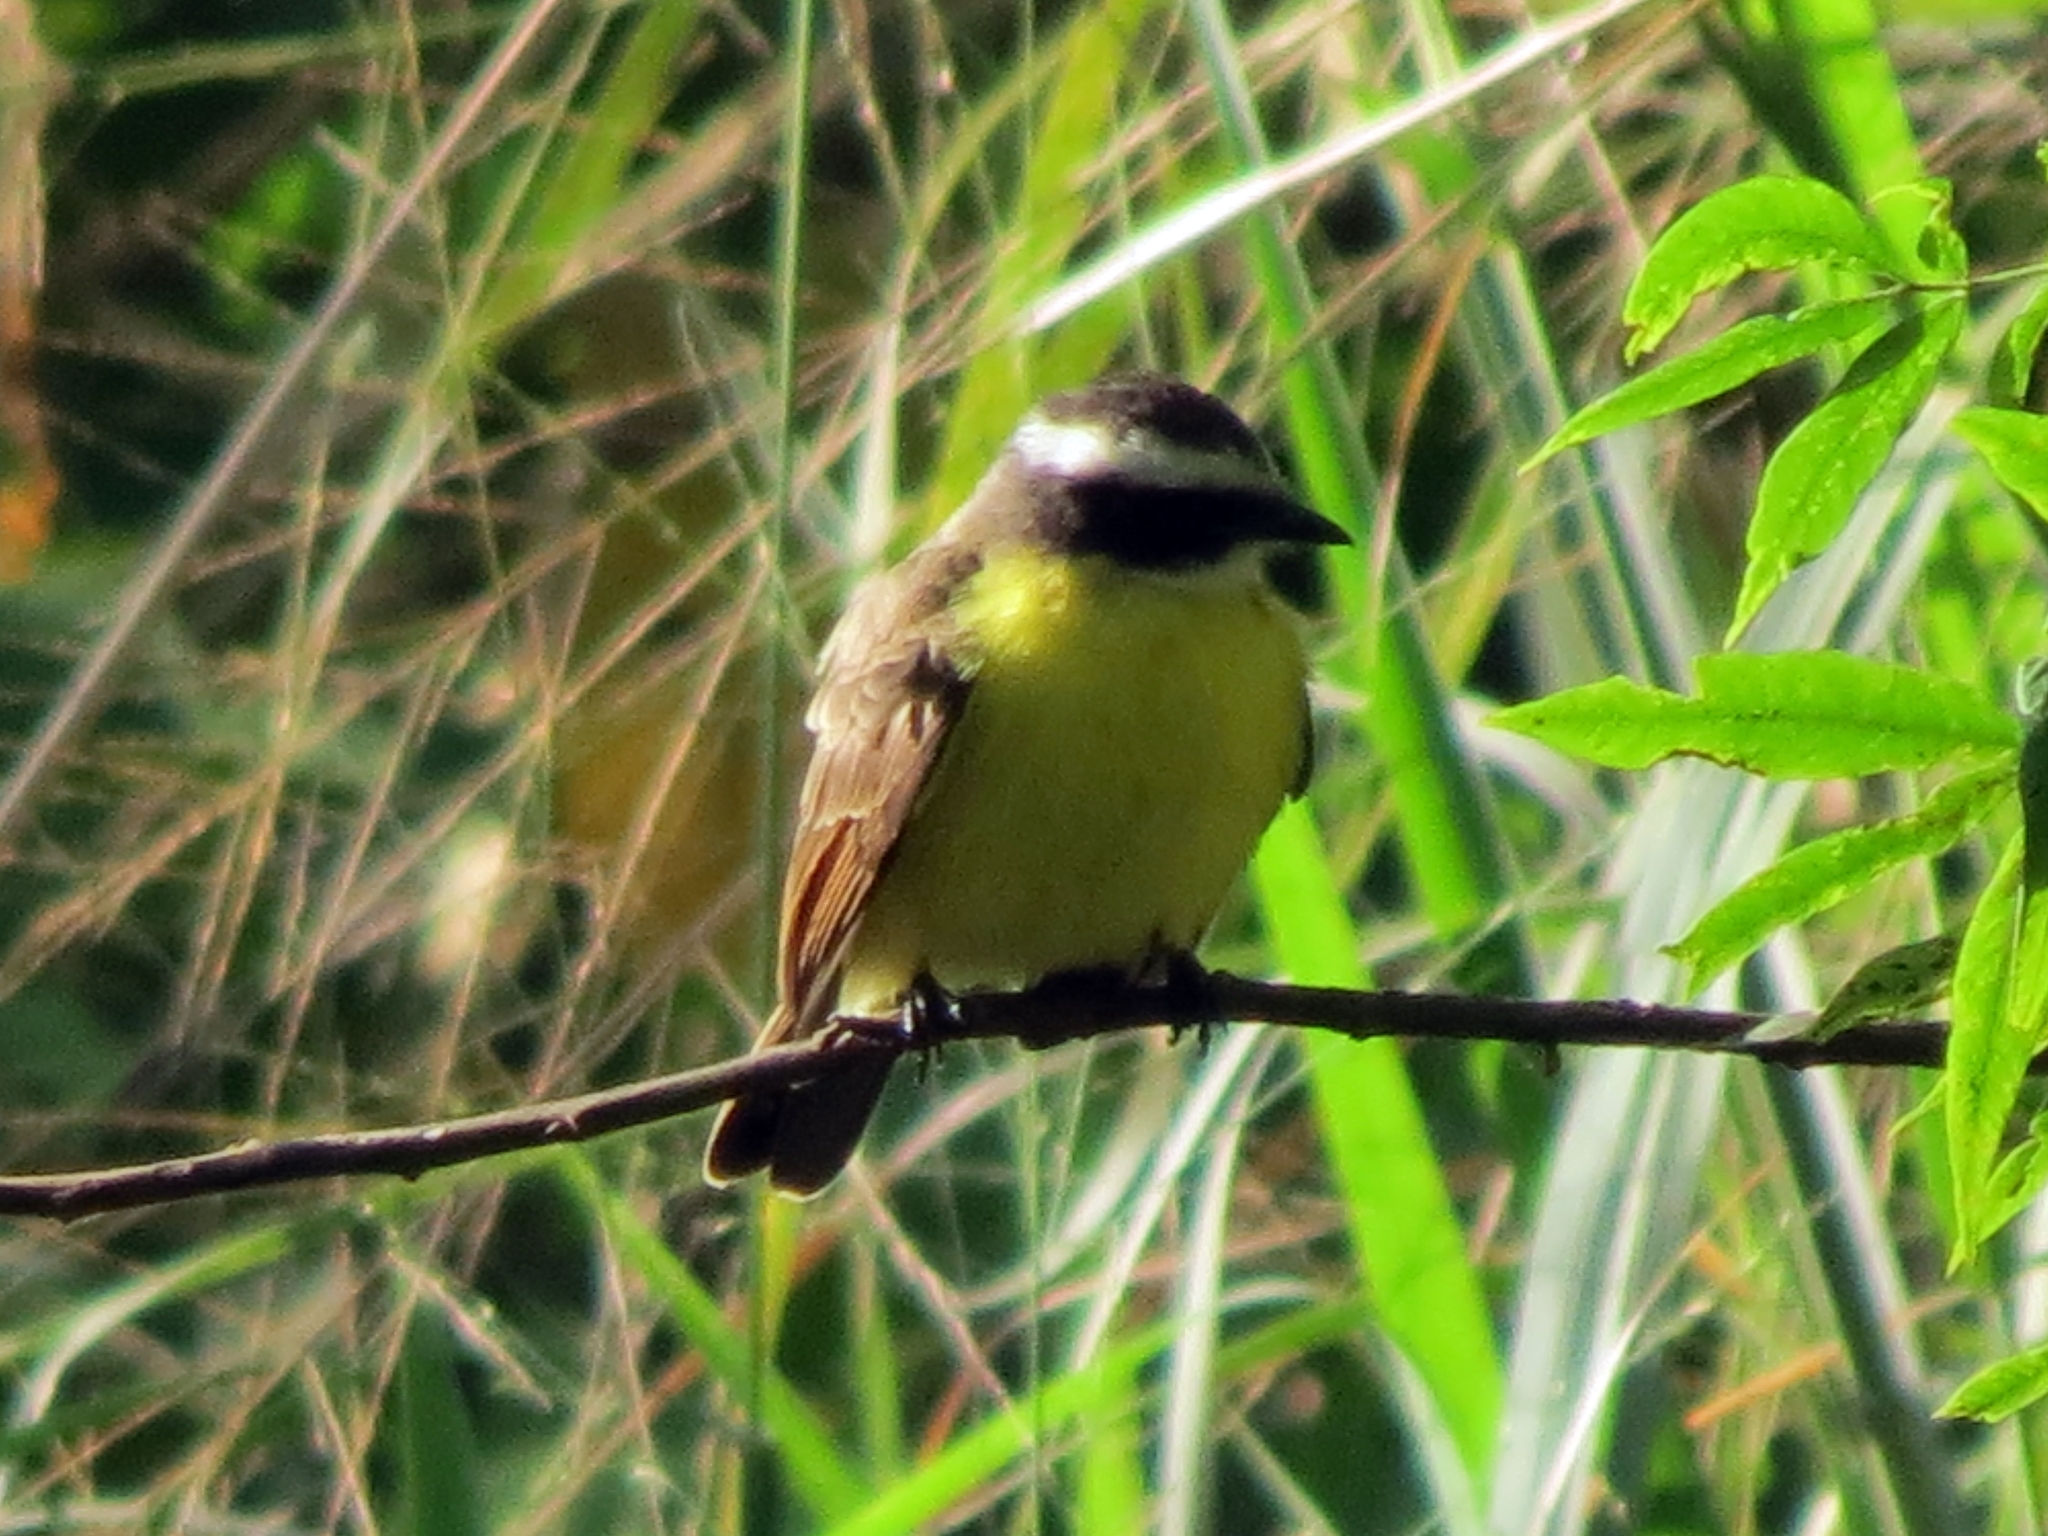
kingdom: Animalia
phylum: Chordata
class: Aves
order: Passeriformes
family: Tyrannidae
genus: Myiozetetes
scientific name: Myiozetetes similis
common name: Social flycatcher
